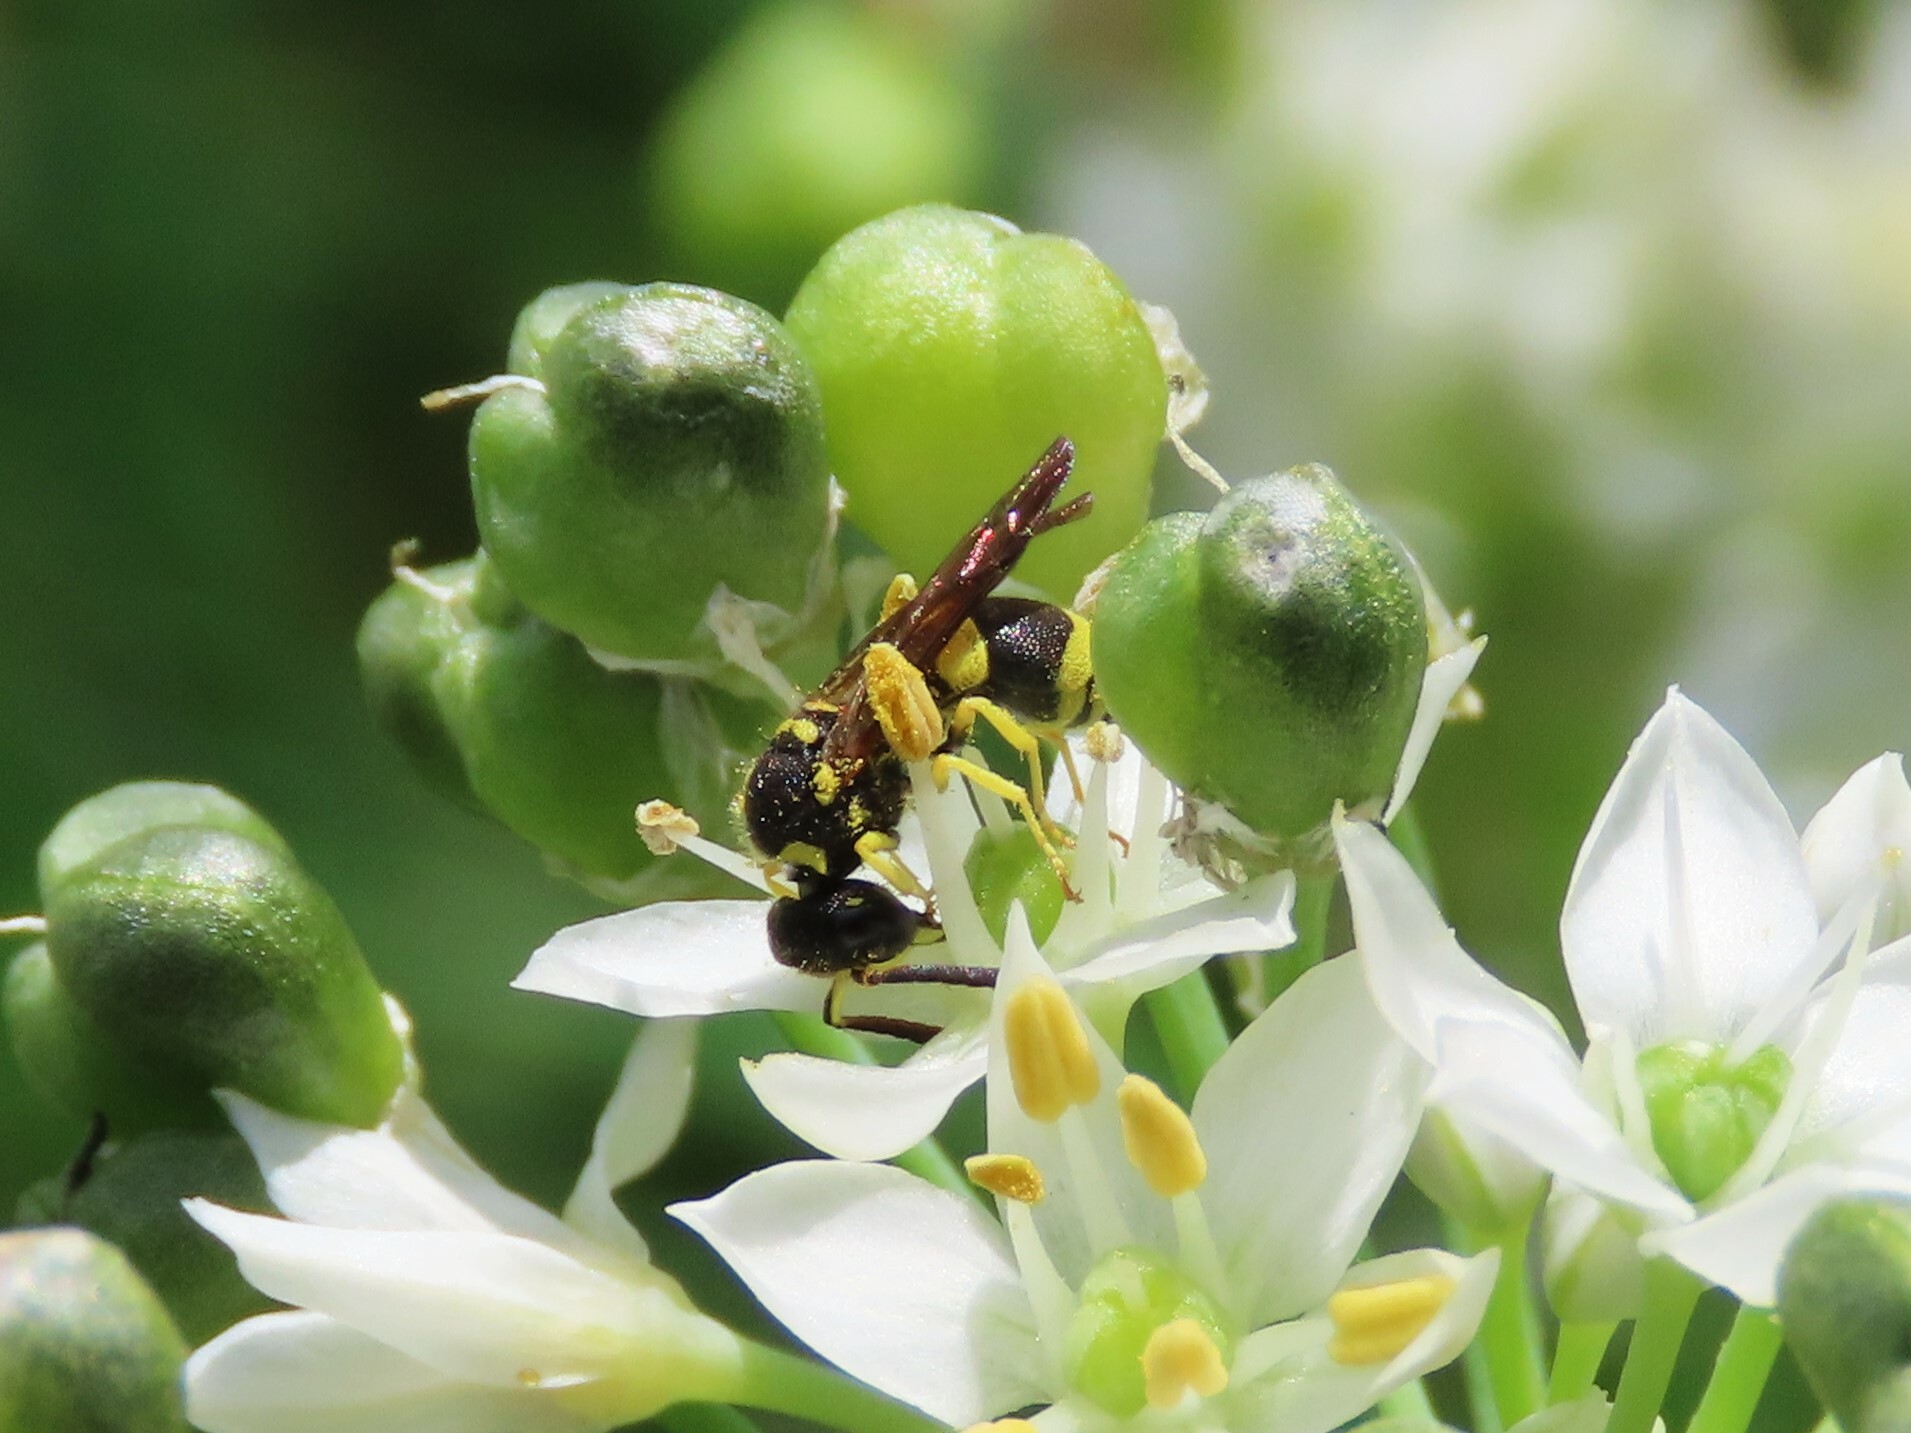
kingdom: Animalia
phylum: Arthropoda
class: Insecta
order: Hymenoptera
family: Vespidae
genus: Ancistrocerus
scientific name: Ancistrocerus gazella
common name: European tube wasp
